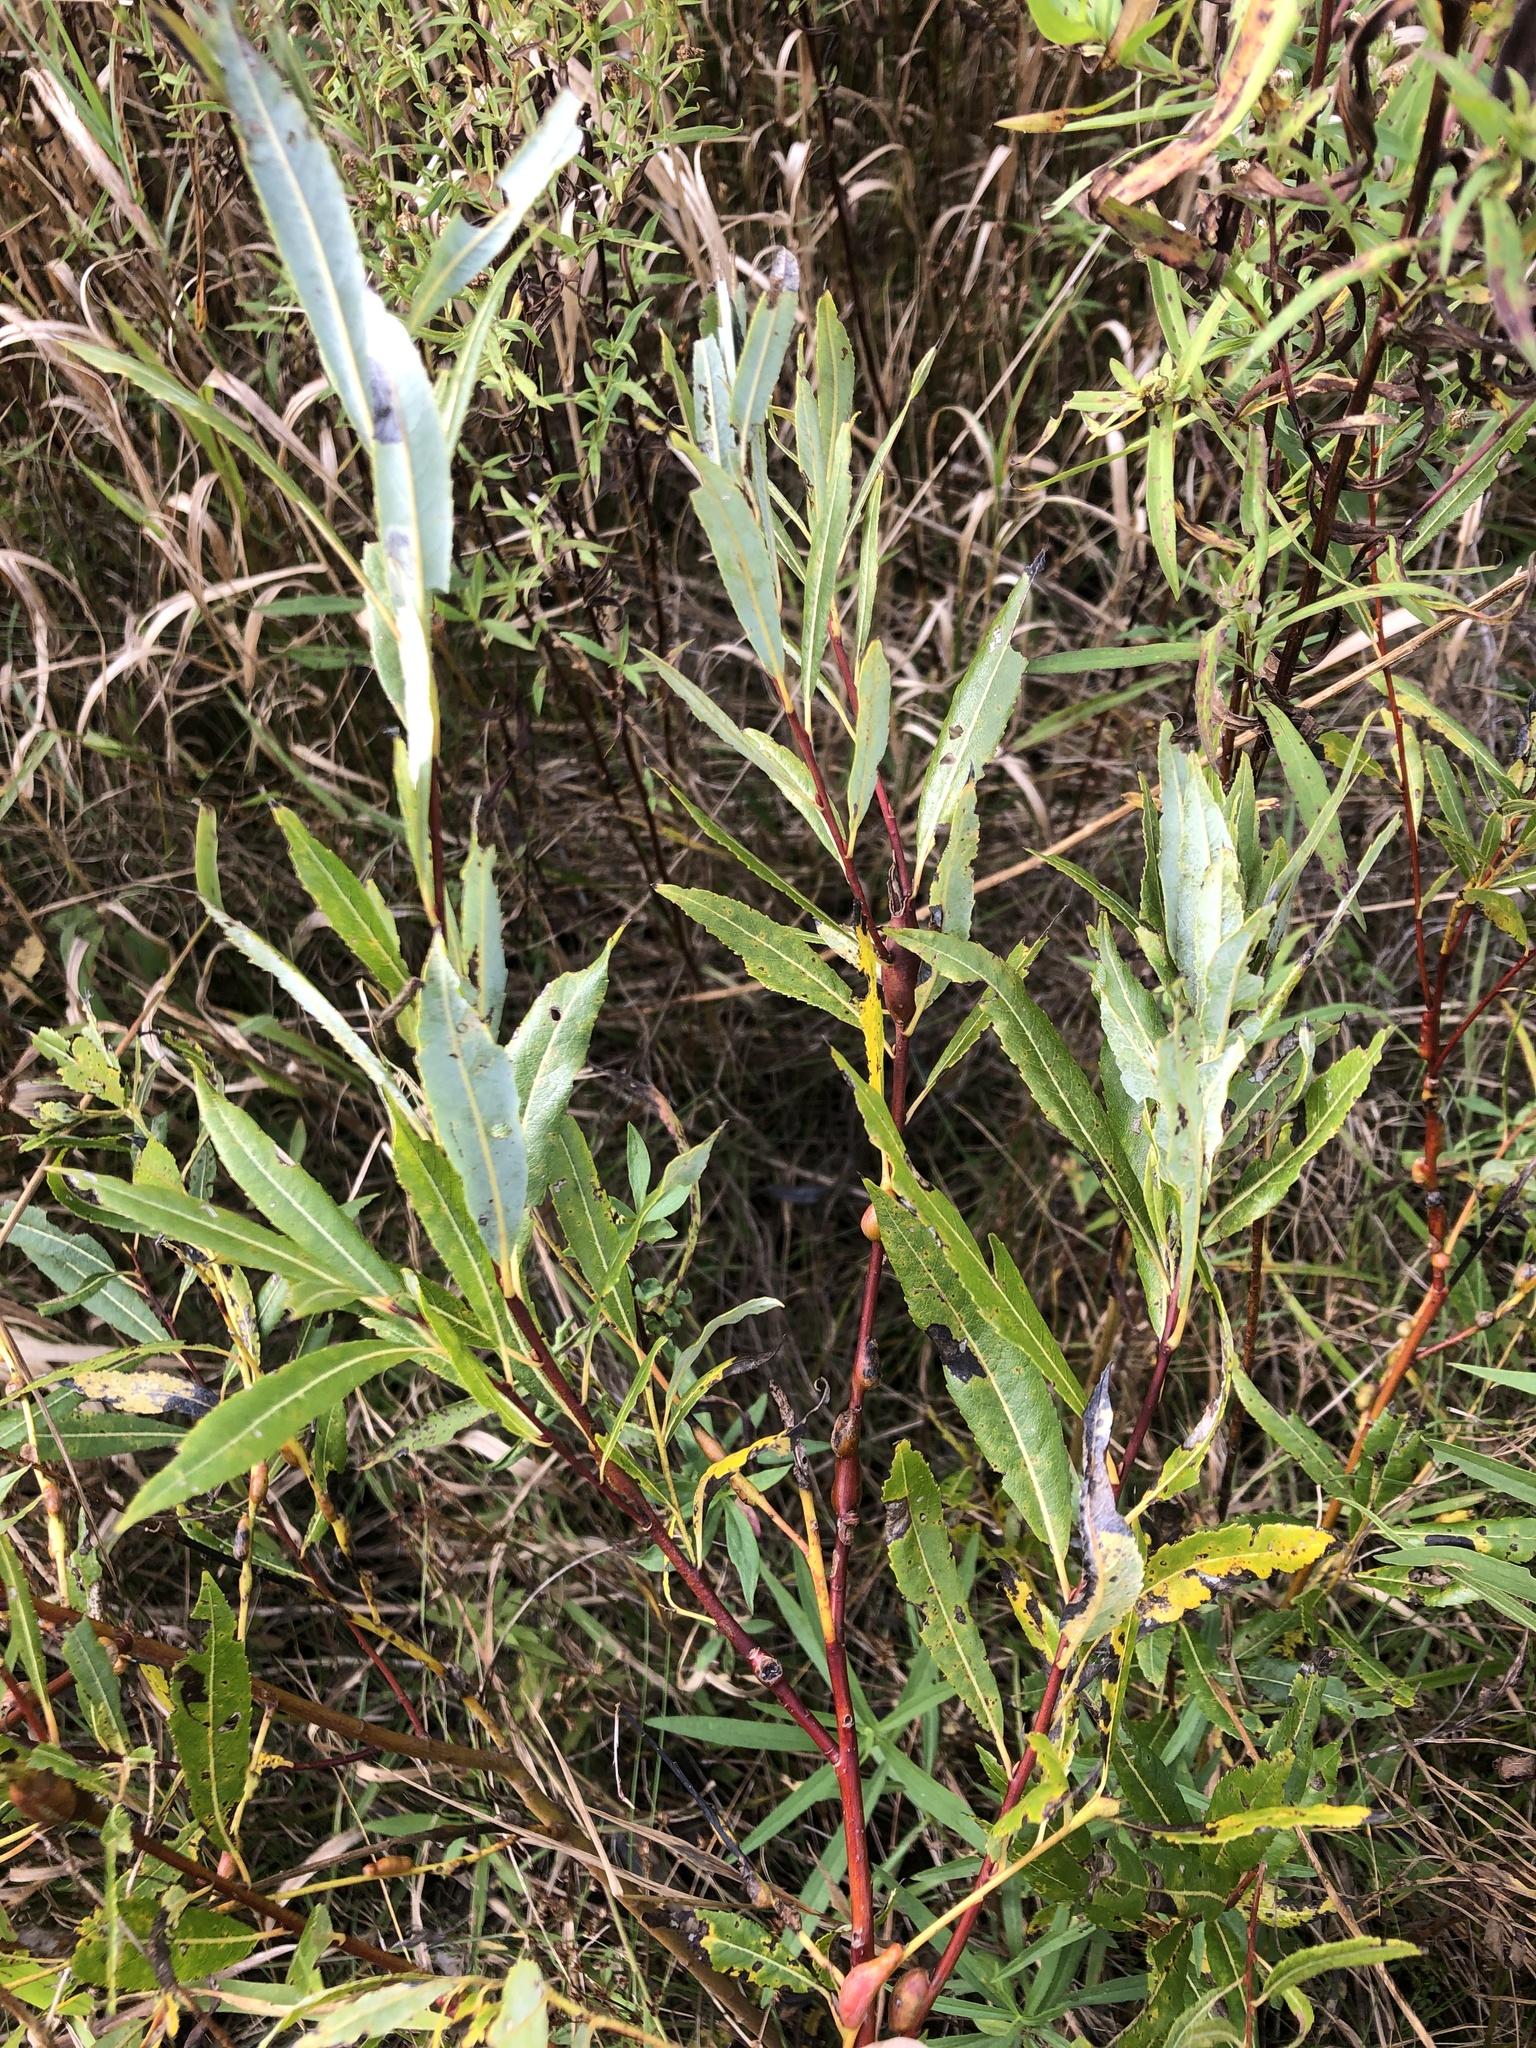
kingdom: Plantae
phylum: Tracheophyta
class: Magnoliopsida
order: Malpighiales
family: Salicaceae
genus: Salix
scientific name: Salix petiolaris
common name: Slender willow
